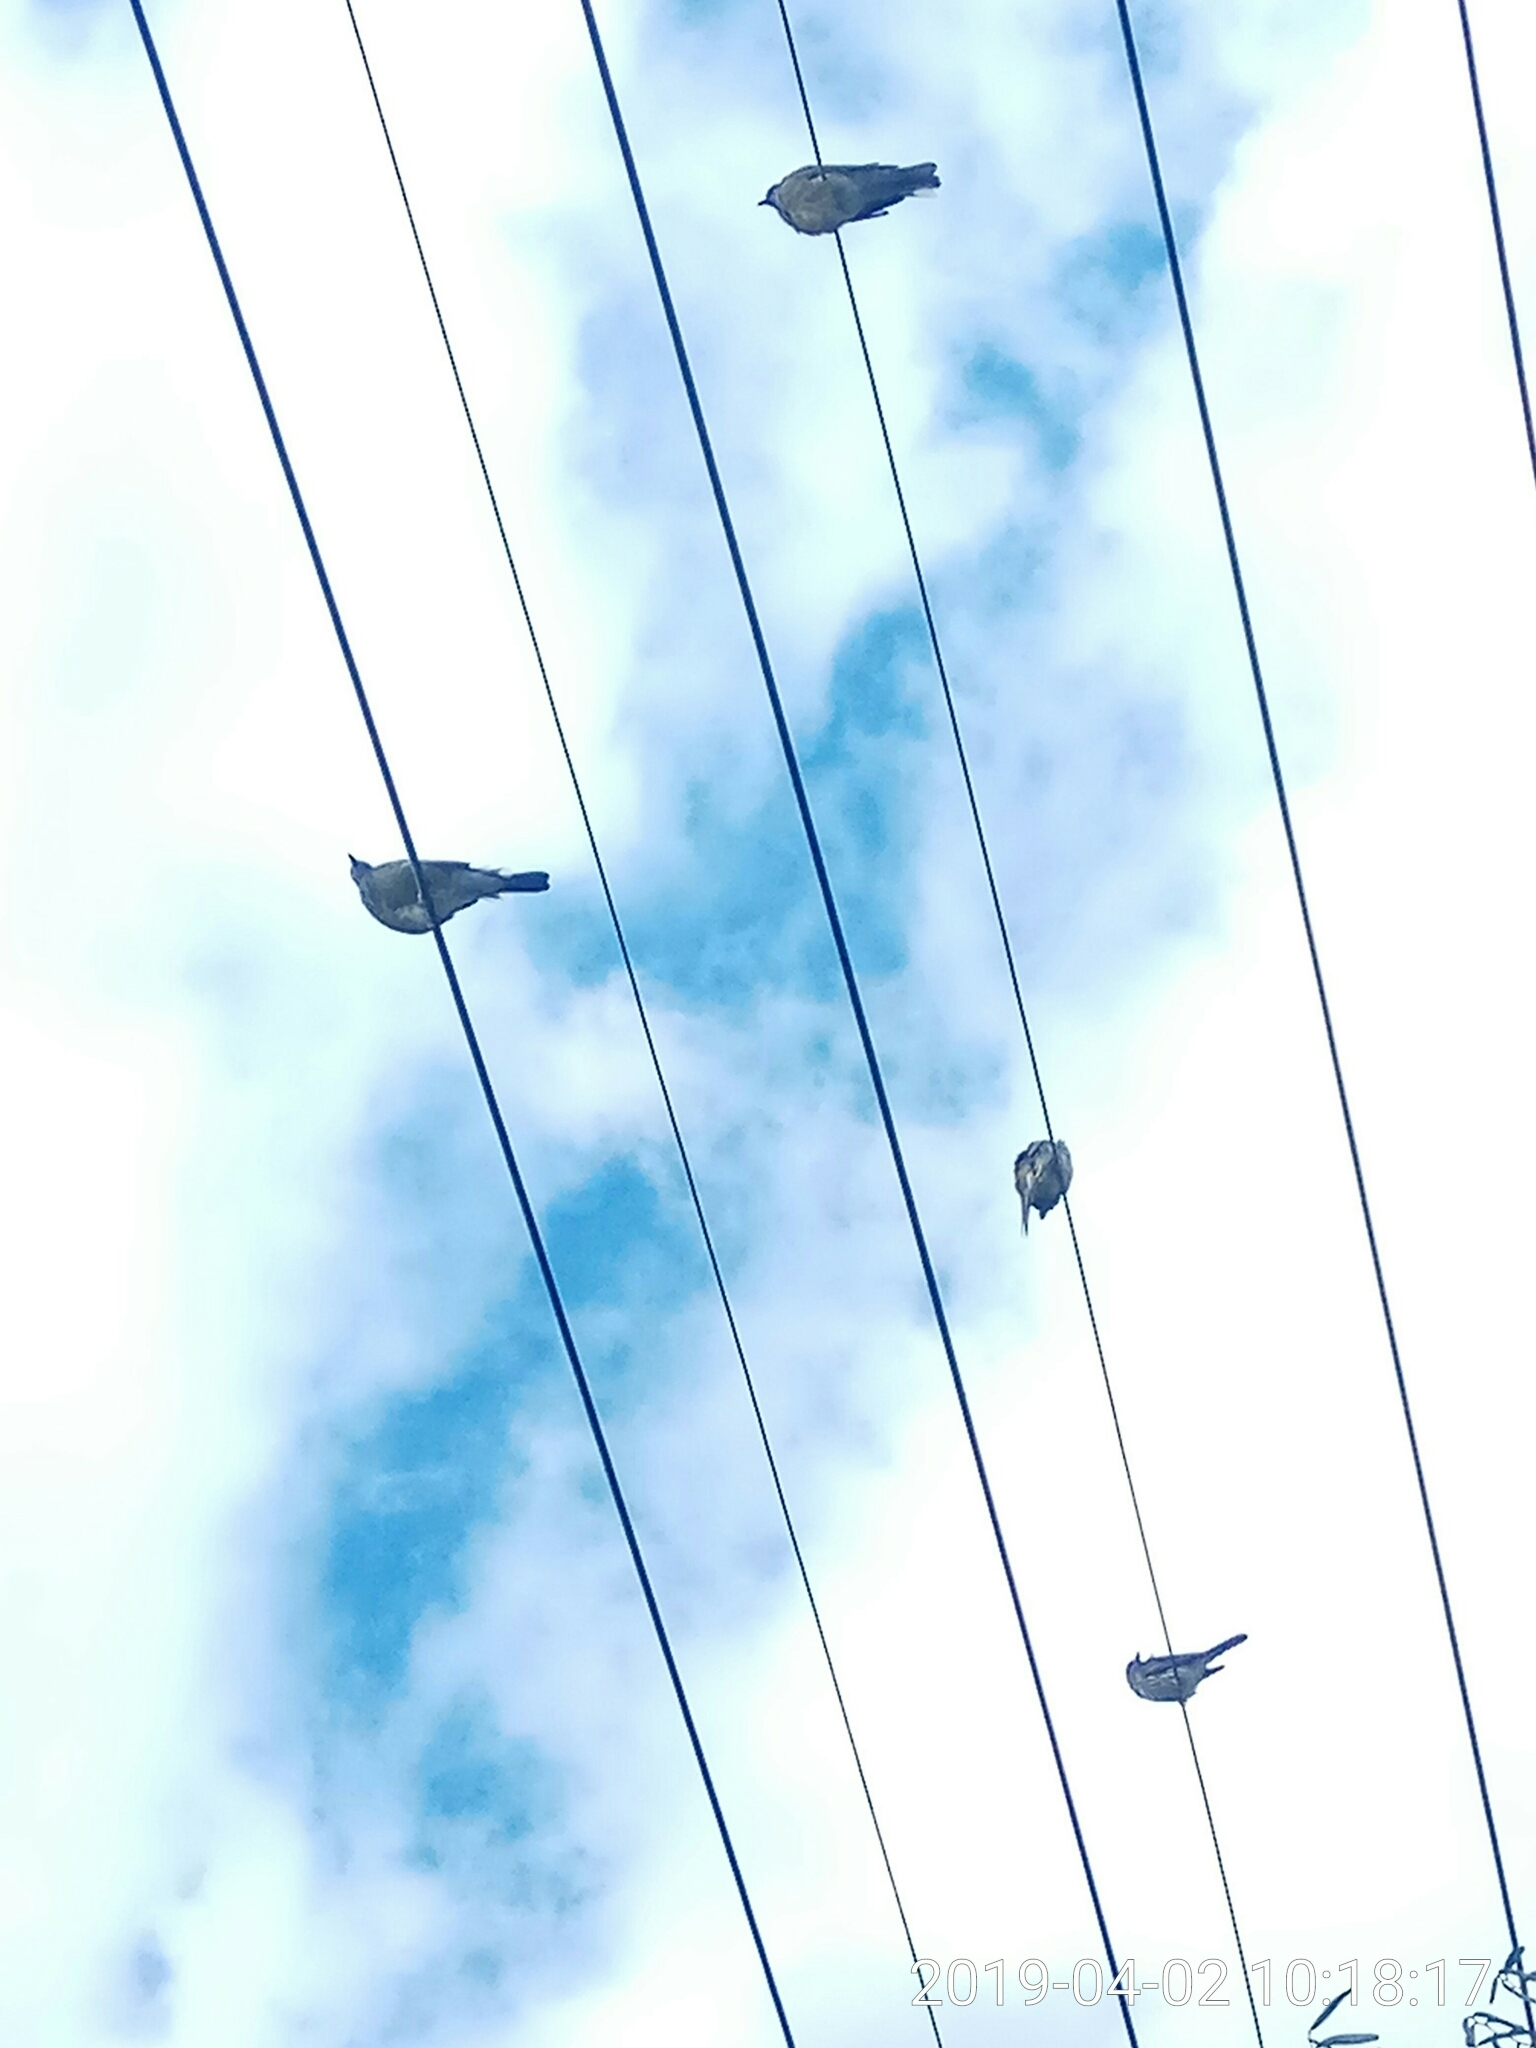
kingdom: Animalia
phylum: Chordata
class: Aves
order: Passeriformes
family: Oriolidae
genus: Sphecotheres
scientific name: Sphecotheres vieilloti
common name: Australasian figbird
